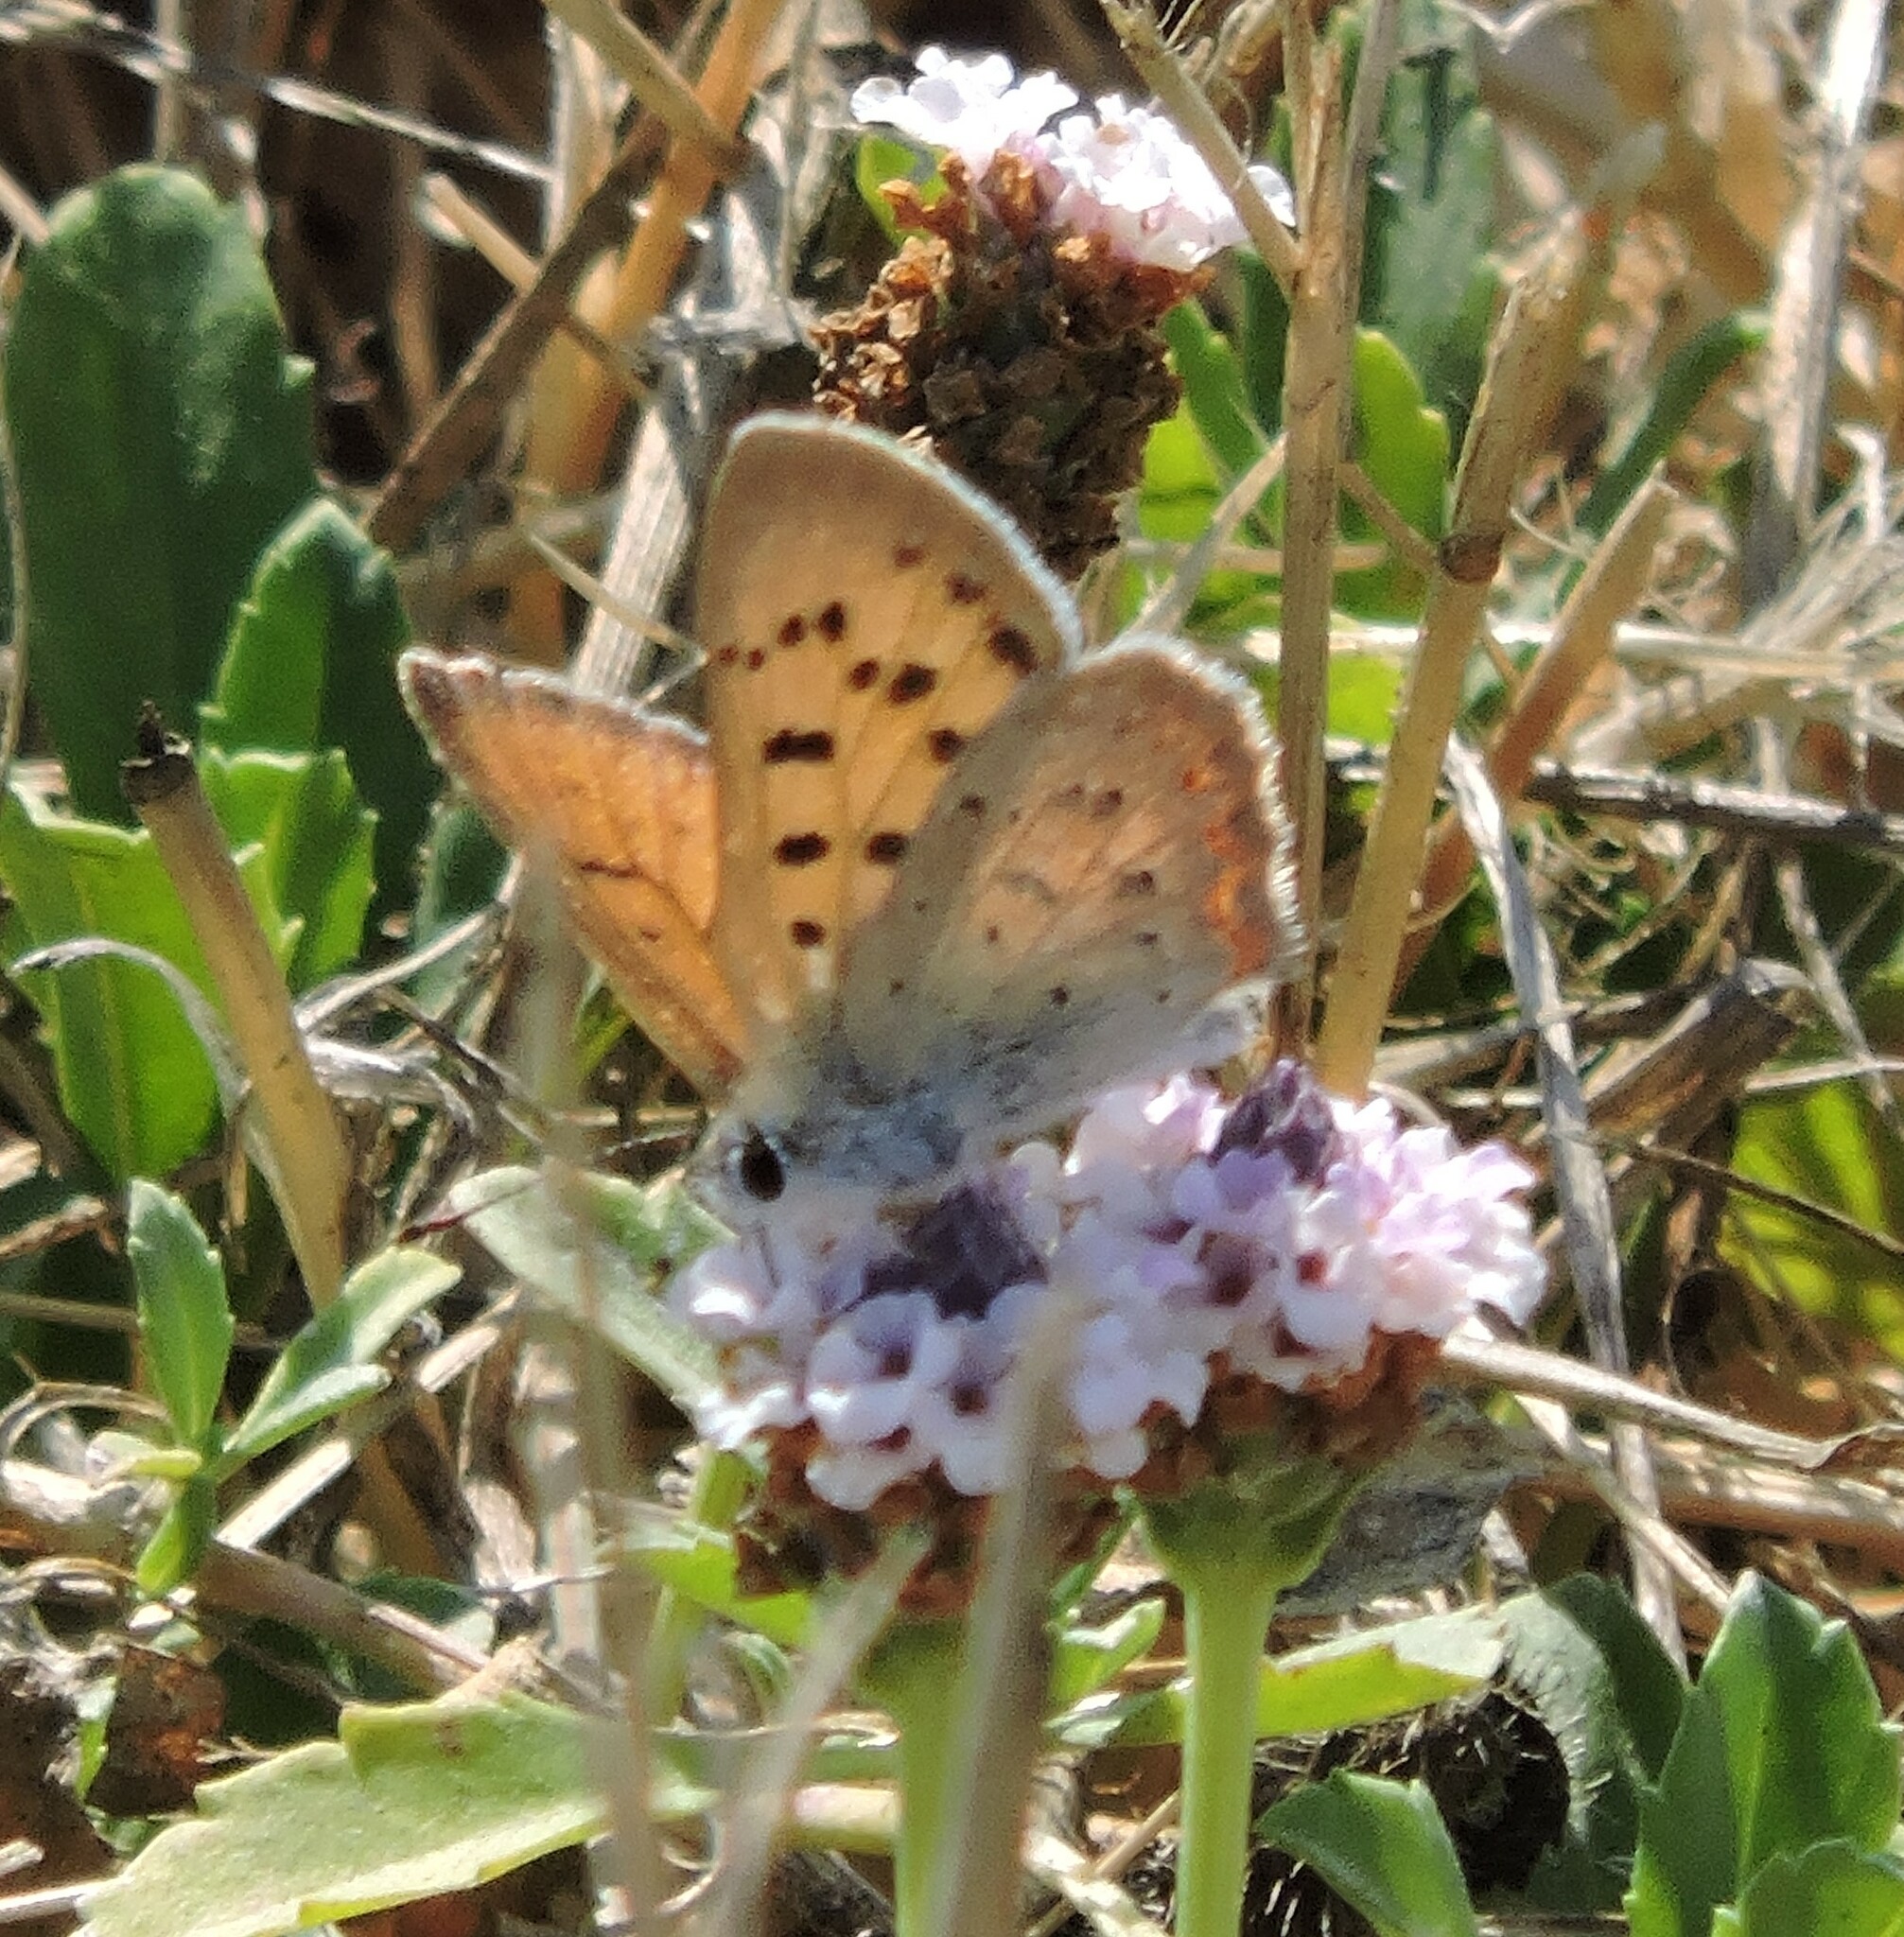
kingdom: Animalia
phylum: Arthropoda
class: Insecta
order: Lepidoptera
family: Lycaenidae
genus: Tharsalea
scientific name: Tharsalea helloides
